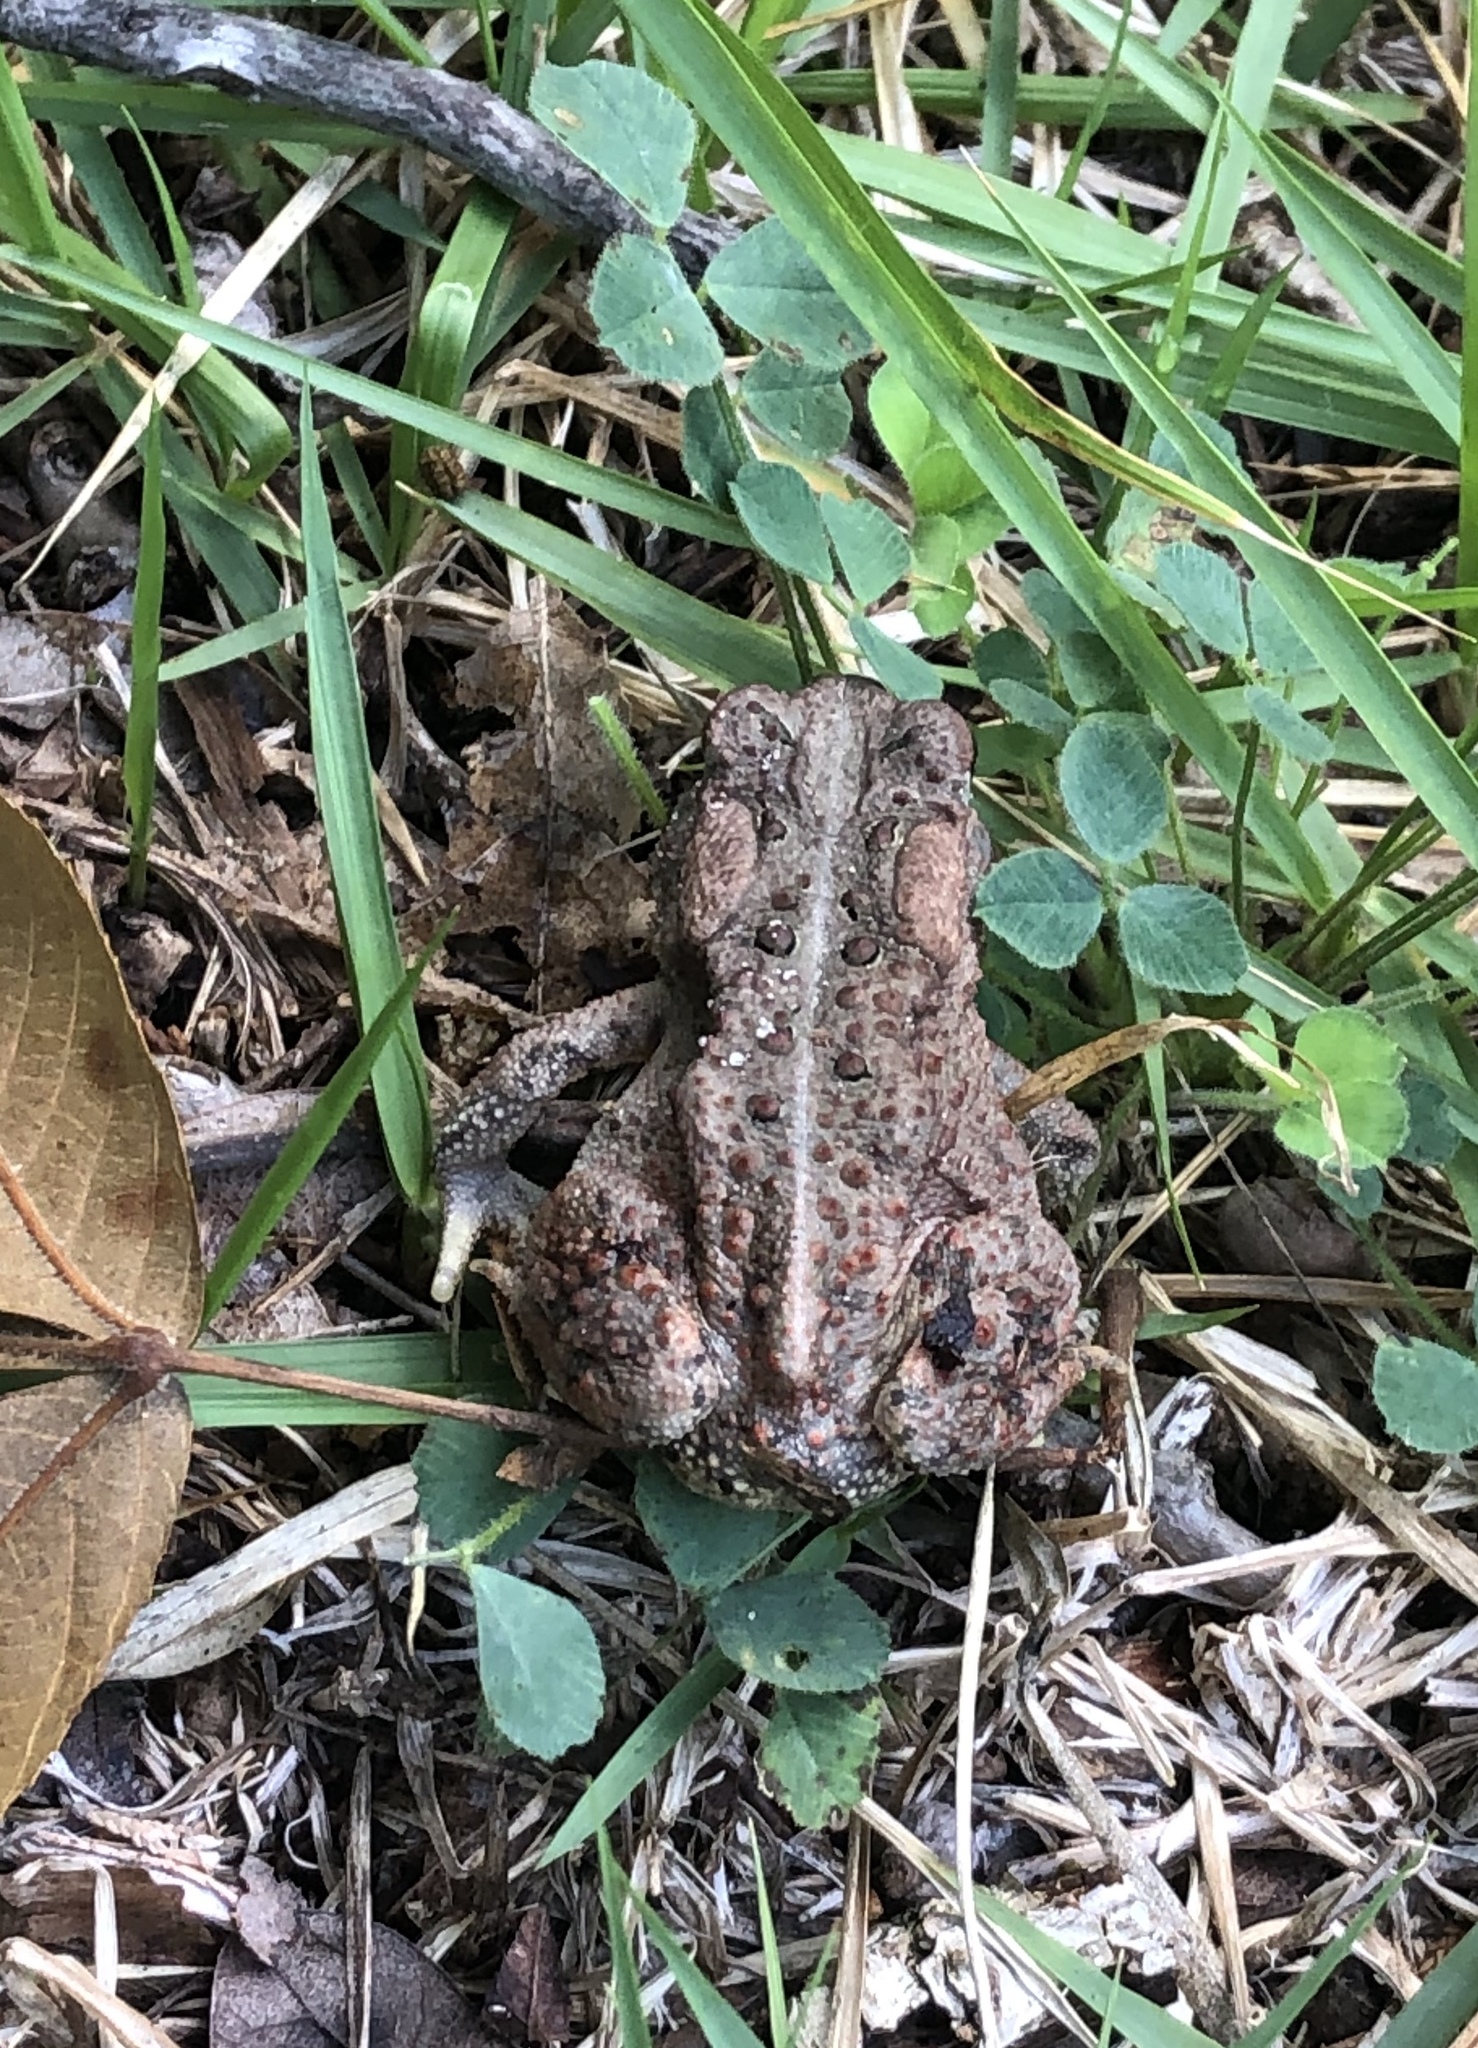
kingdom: Animalia
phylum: Chordata
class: Amphibia
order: Anura
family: Bufonidae
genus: Anaxyrus
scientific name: Anaxyrus americanus
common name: American toad
